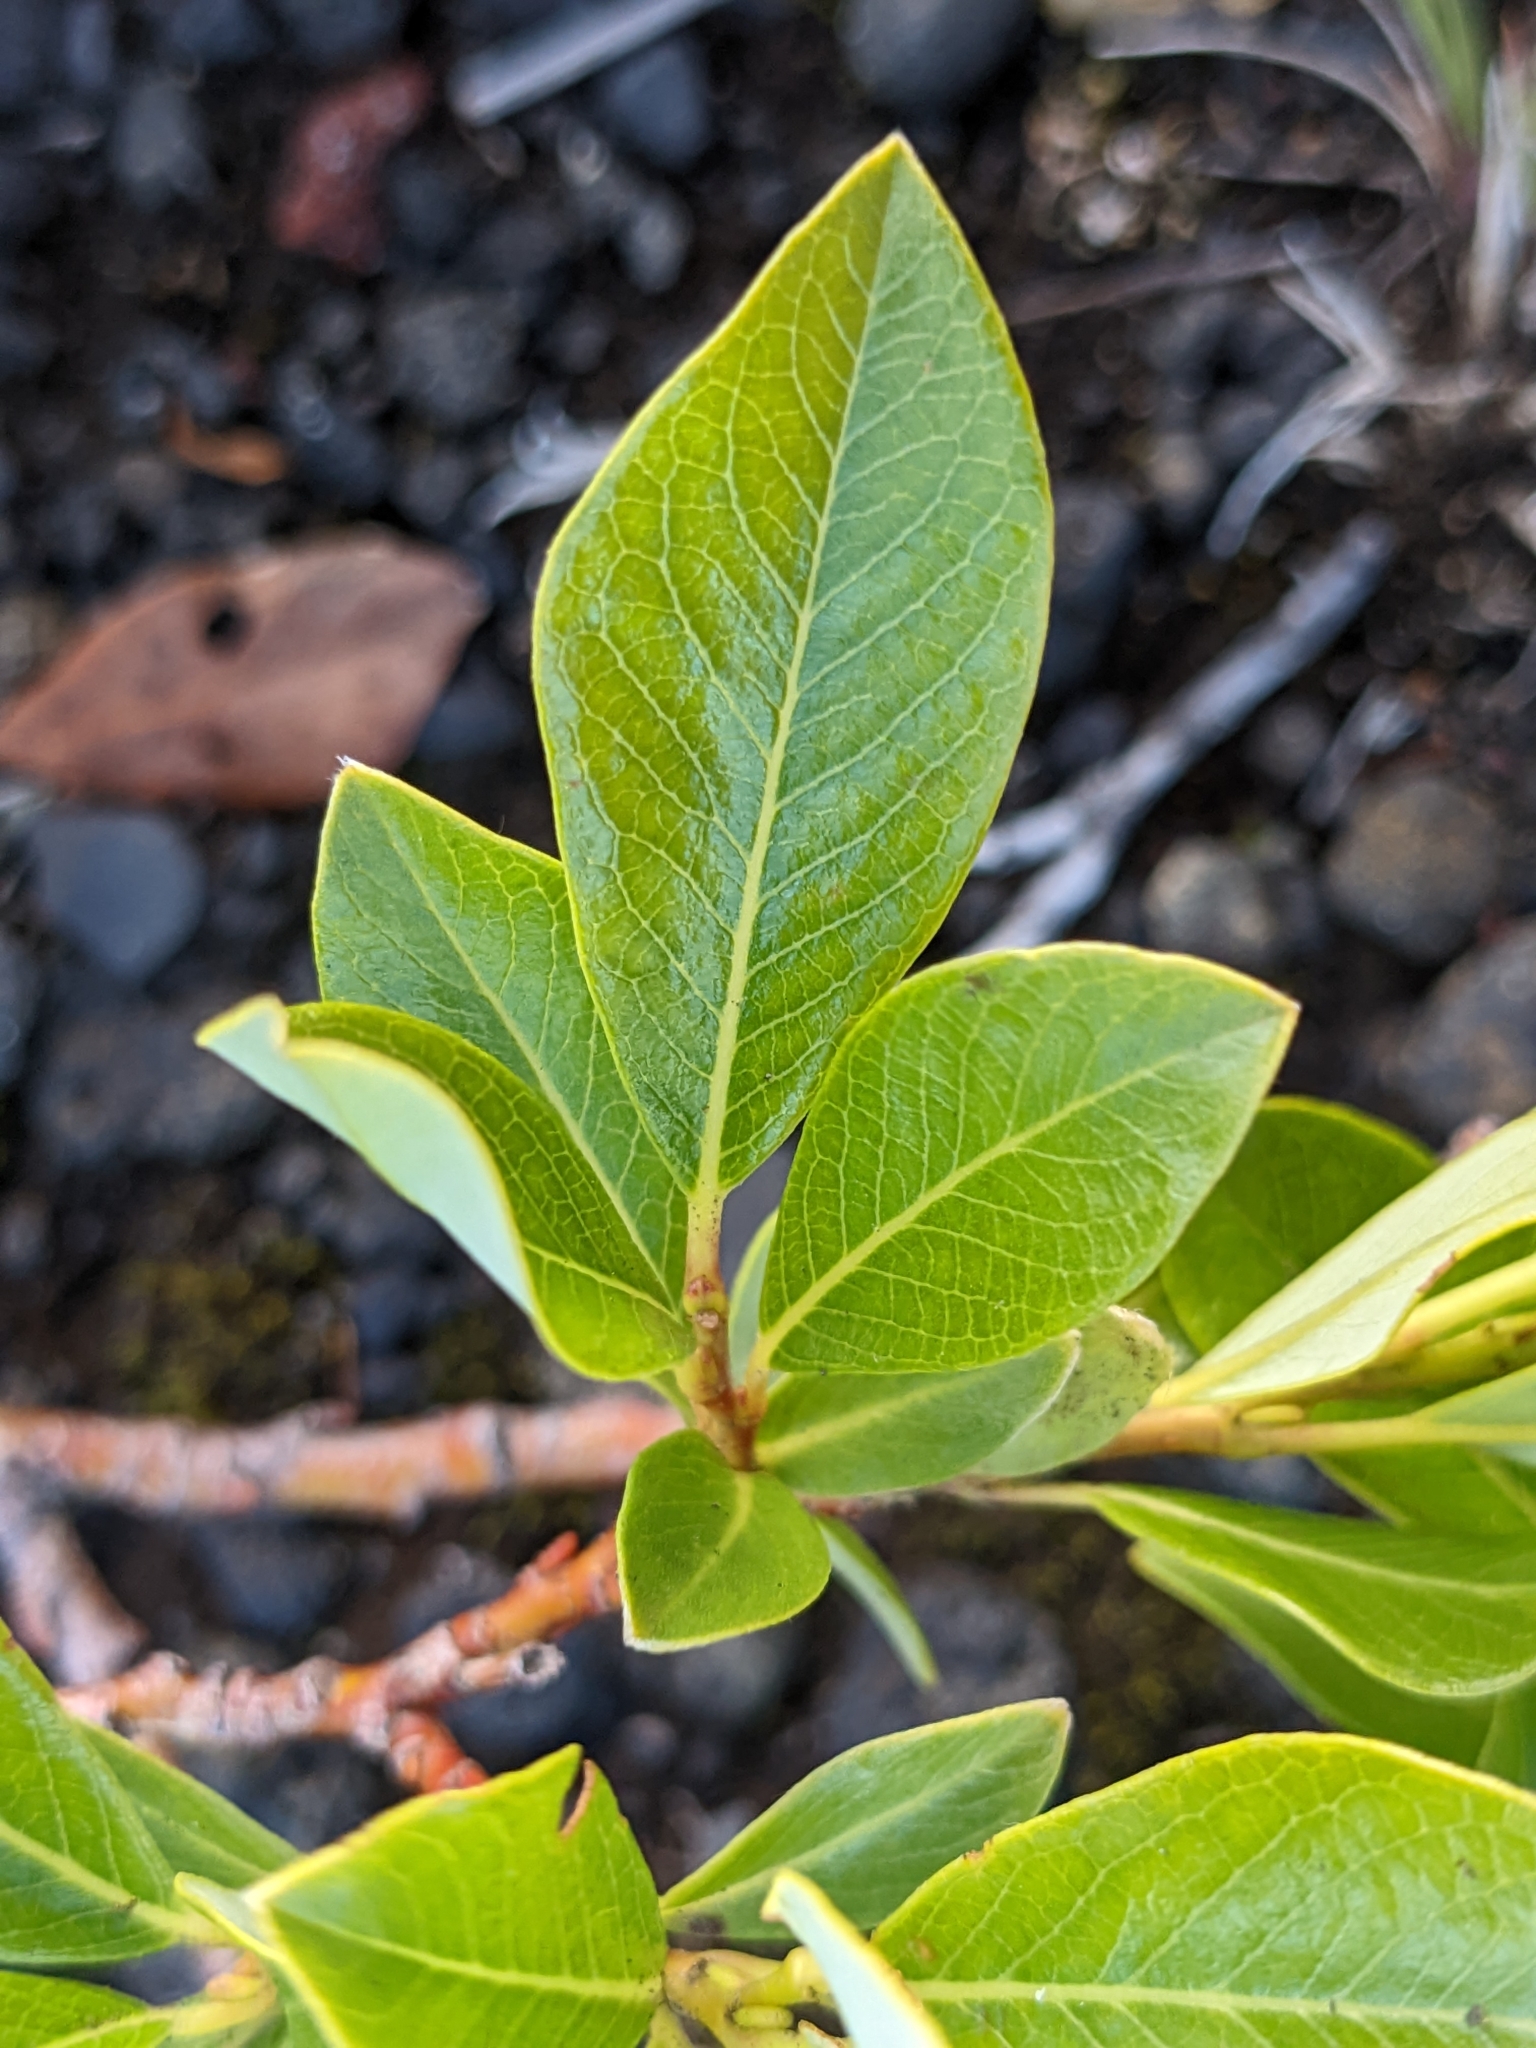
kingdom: Plantae
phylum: Tracheophyta
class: Magnoliopsida
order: Malpighiales
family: Salicaceae
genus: Salix
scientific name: Salix phylicifolia
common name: Tea-leaved willow
